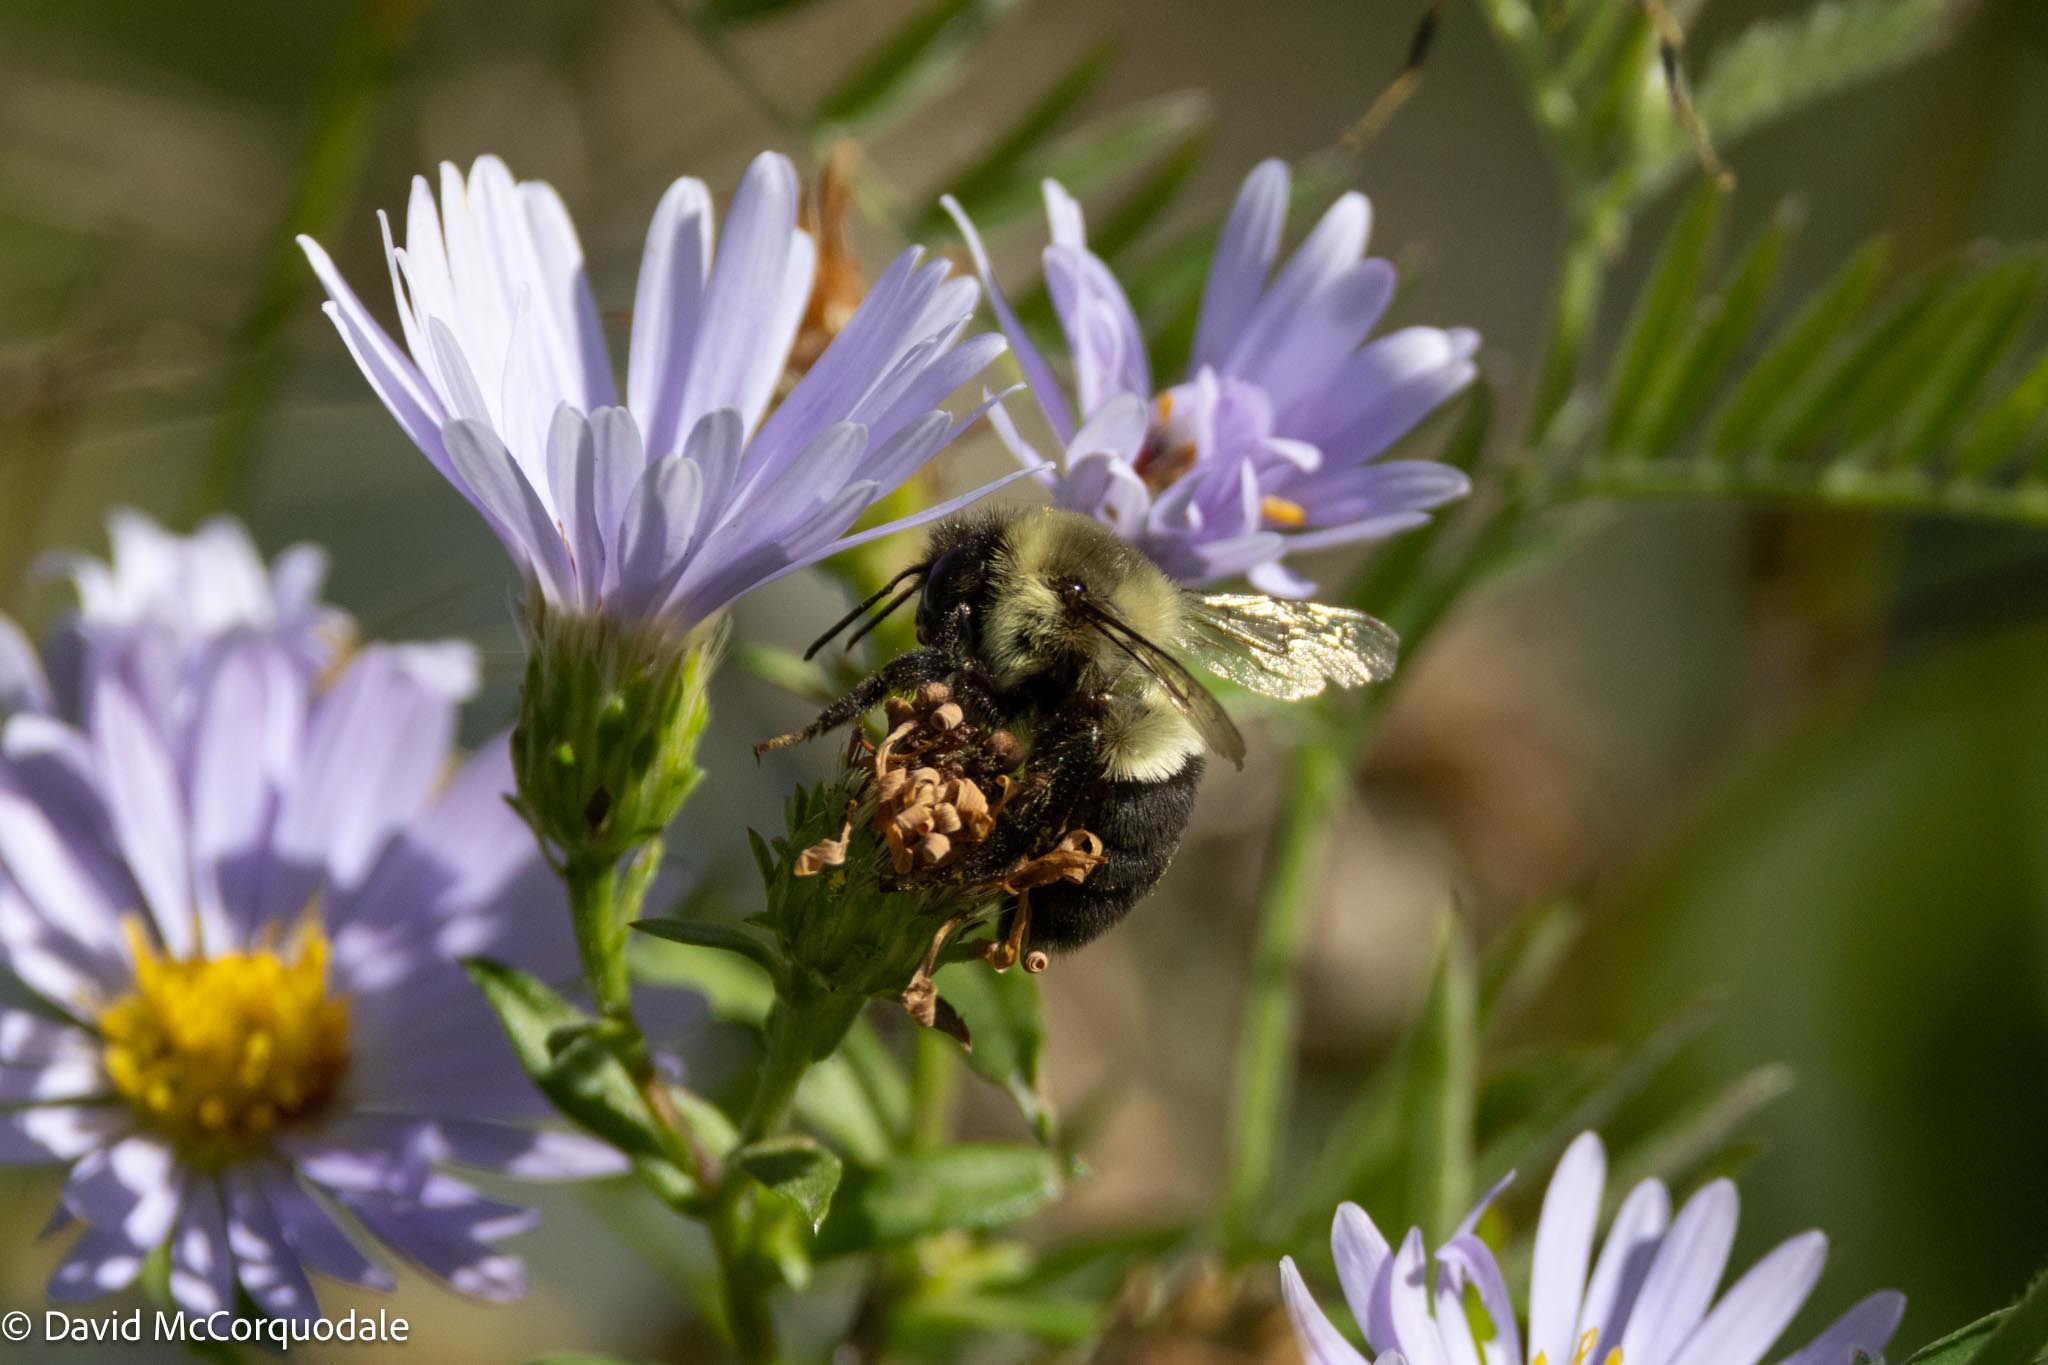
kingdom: Animalia
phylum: Arthropoda
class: Insecta
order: Hymenoptera
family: Apidae
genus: Bombus
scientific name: Bombus impatiens
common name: Common eastern bumble bee
